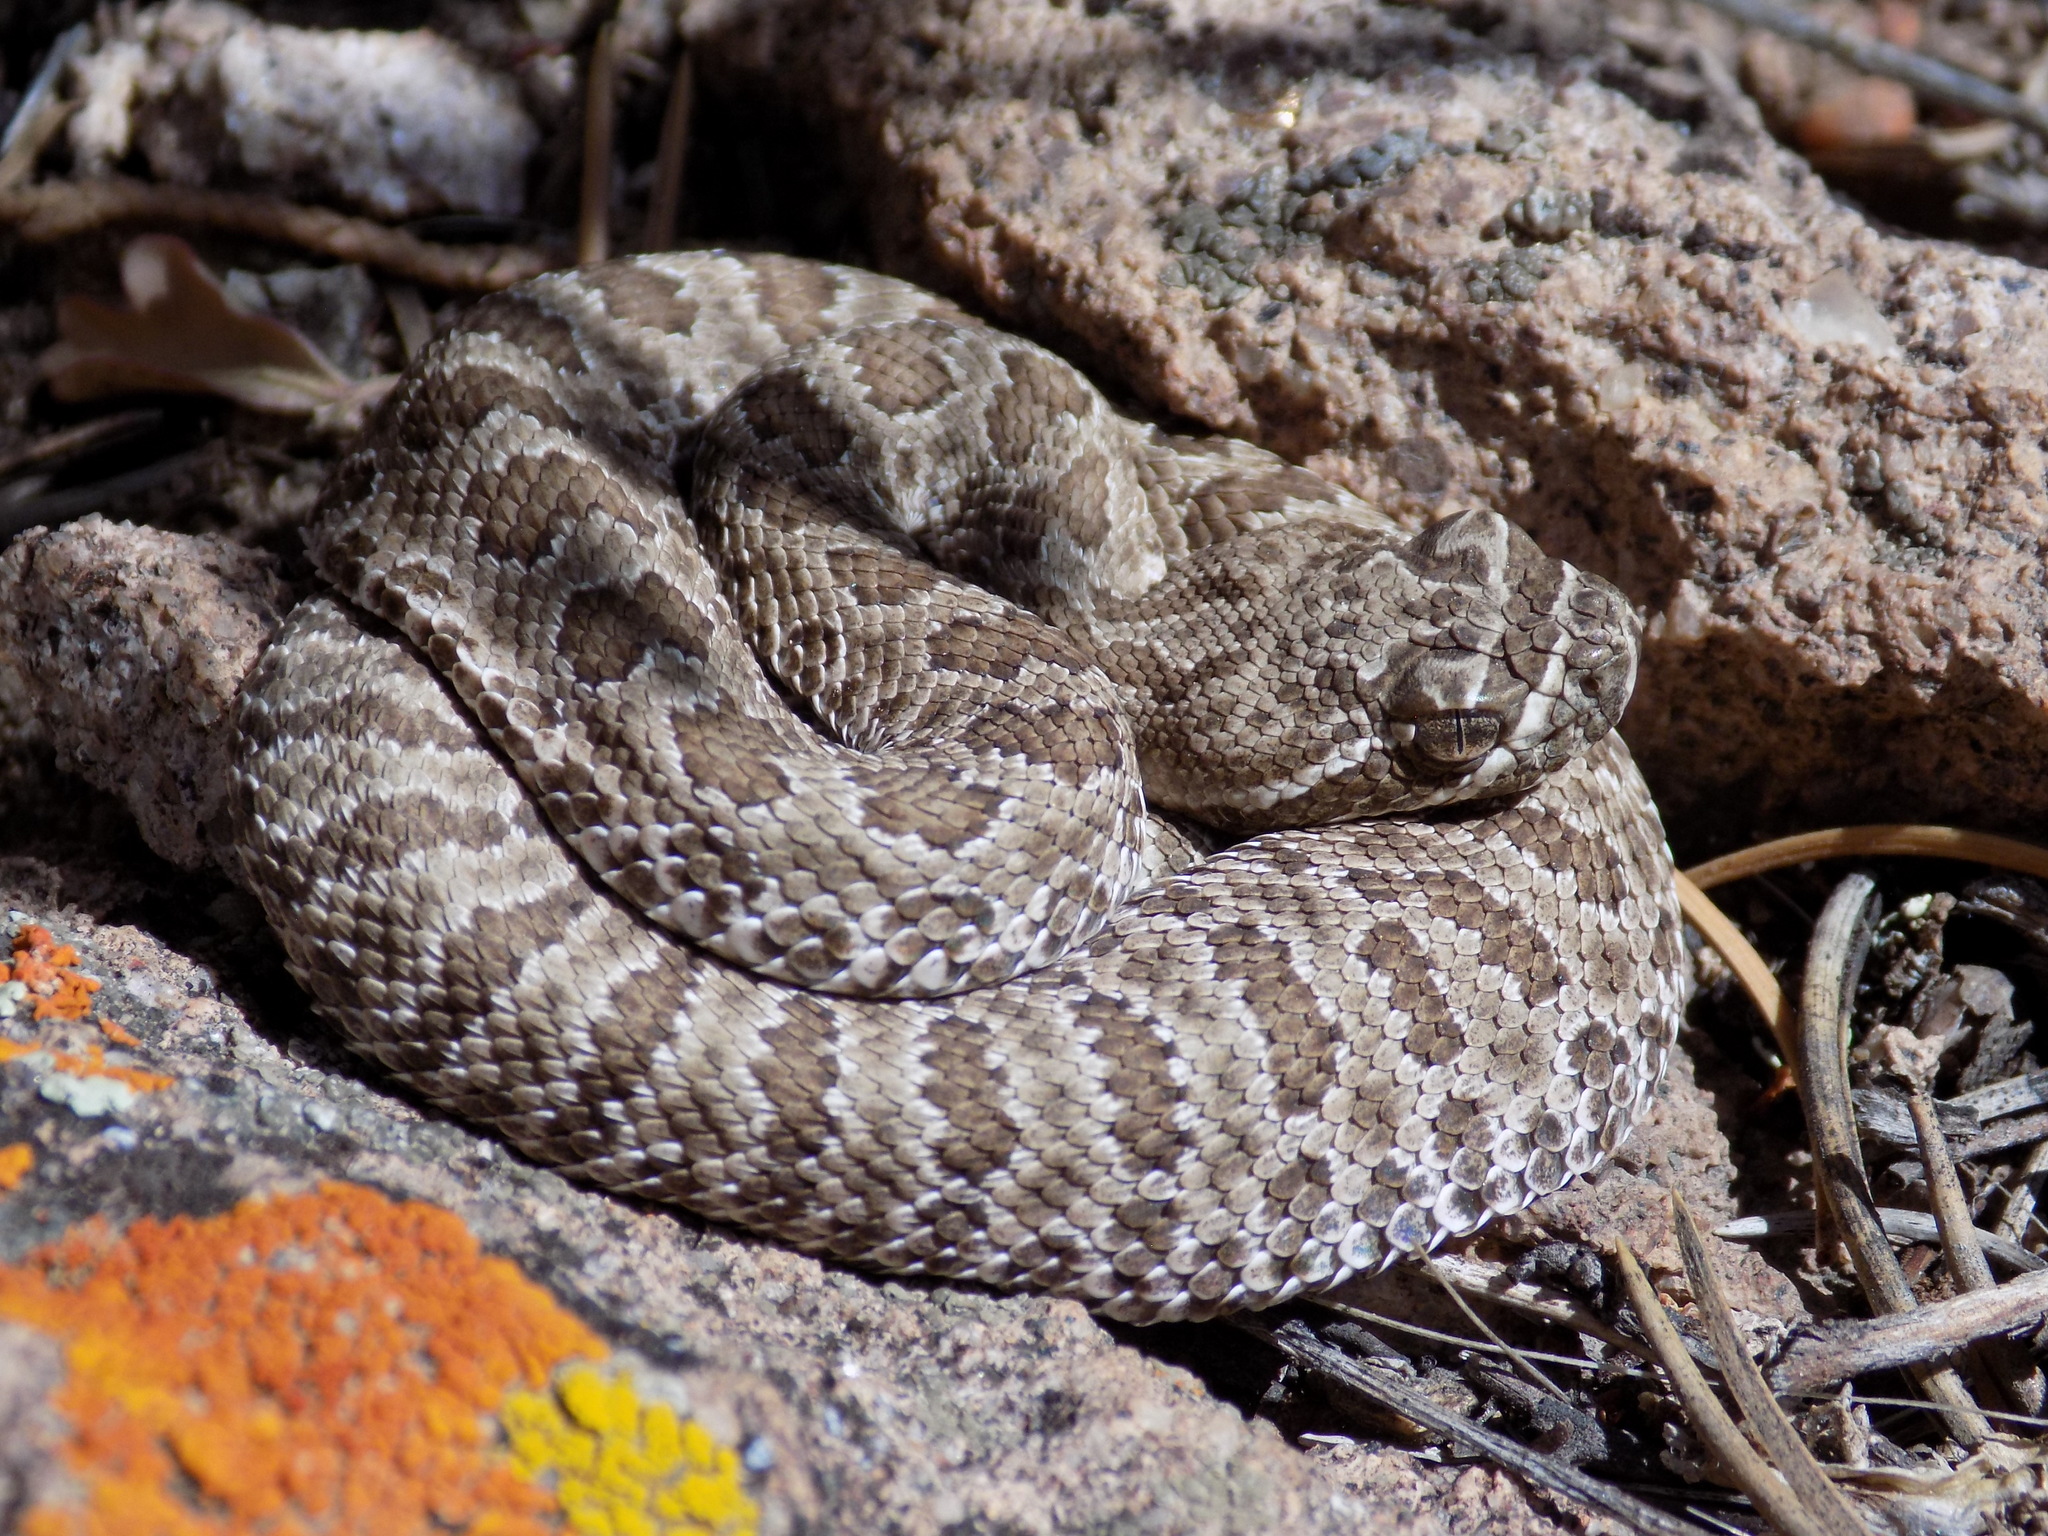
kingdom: Animalia
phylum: Chordata
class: Squamata
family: Viperidae
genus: Crotalus
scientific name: Crotalus viridis
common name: Prairie rattlesnake
